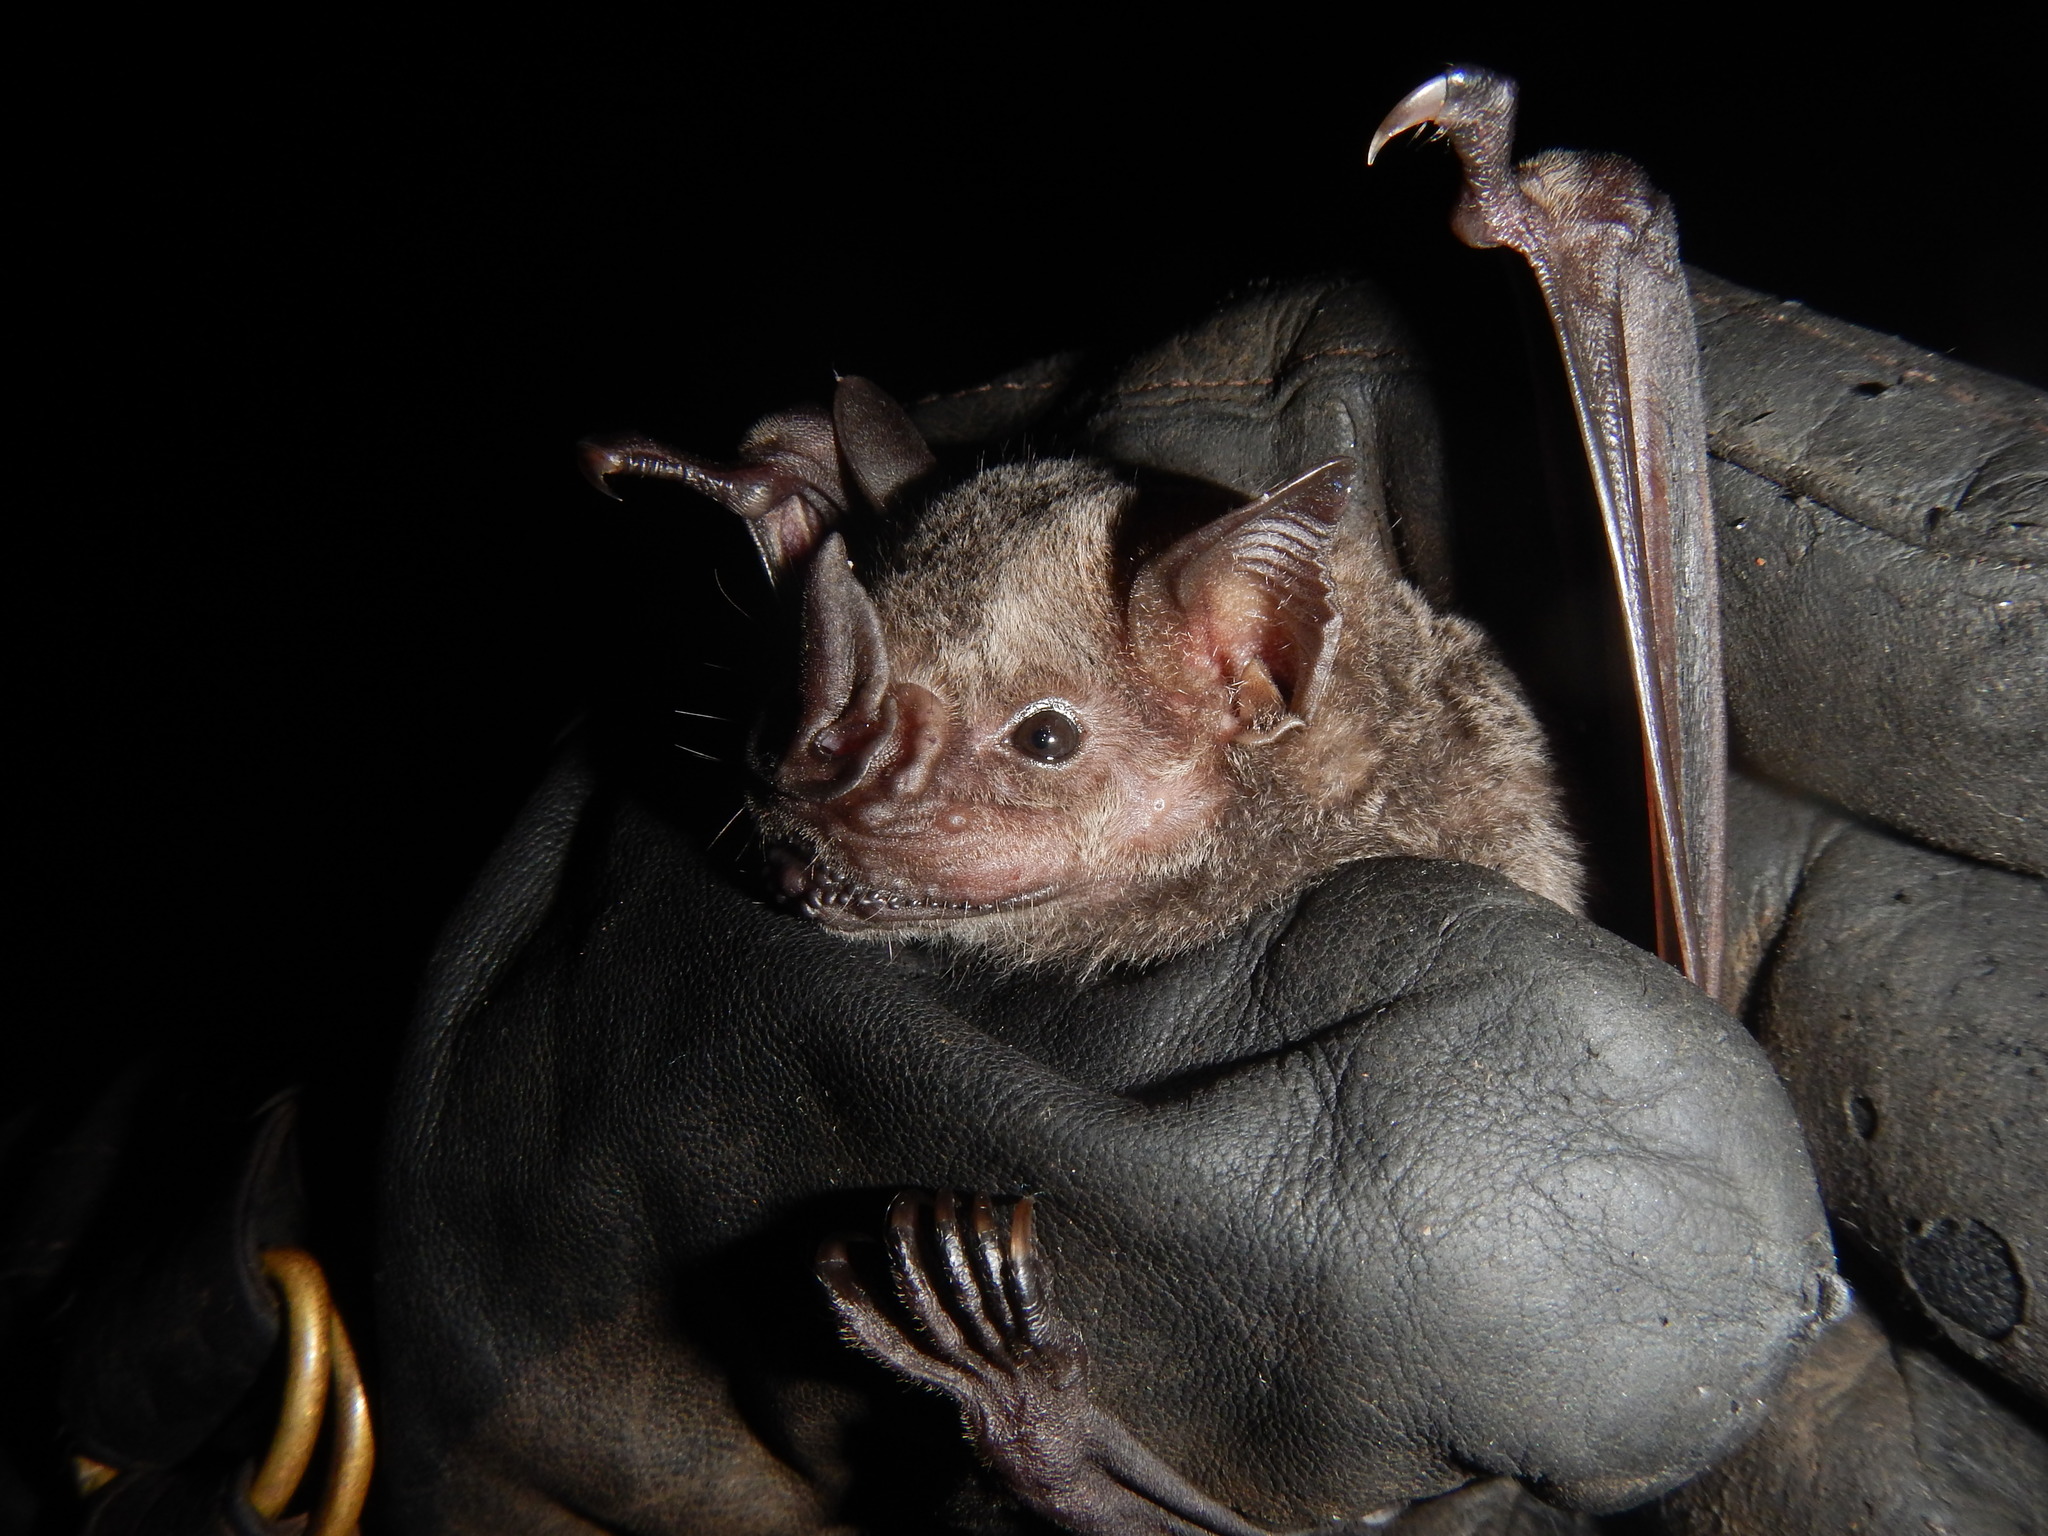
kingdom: Animalia
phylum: Chordata
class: Mammalia
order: Chiroptera
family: Phyllostomidae
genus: Artibeus
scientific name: Artibeus planirostris
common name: Flat-faced fruit-eating bat
